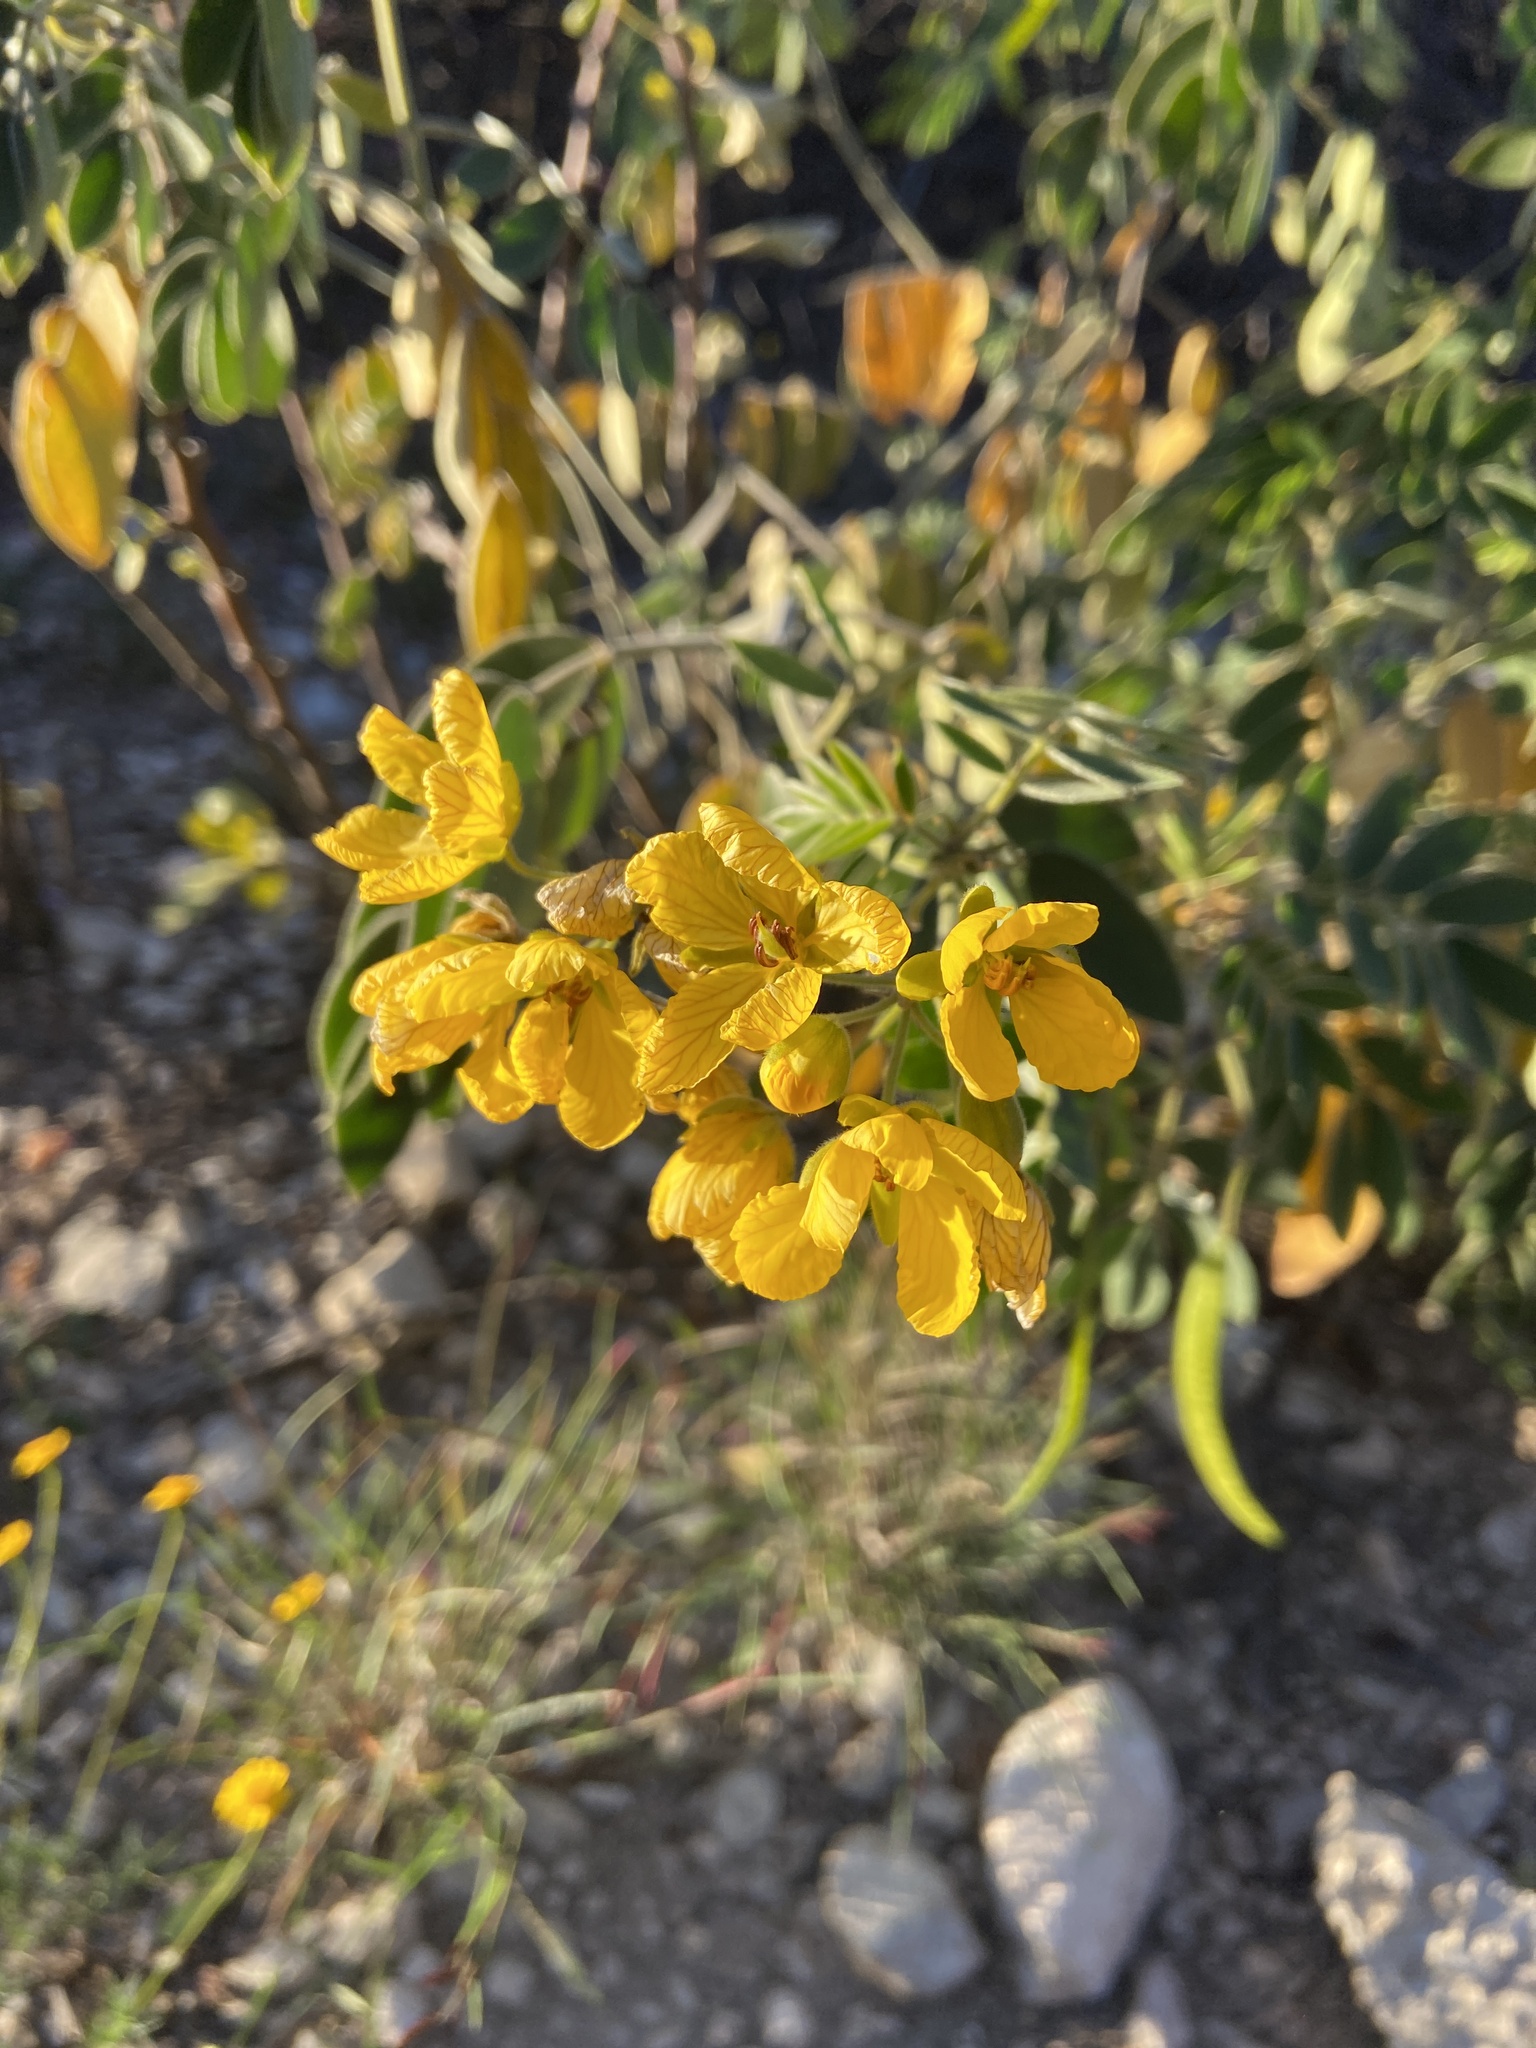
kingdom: Plantae
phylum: Tracheophyta
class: Magnoliopsida
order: Fabales
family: Fabaceae
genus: Senna
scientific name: Senna lindheimeriana
